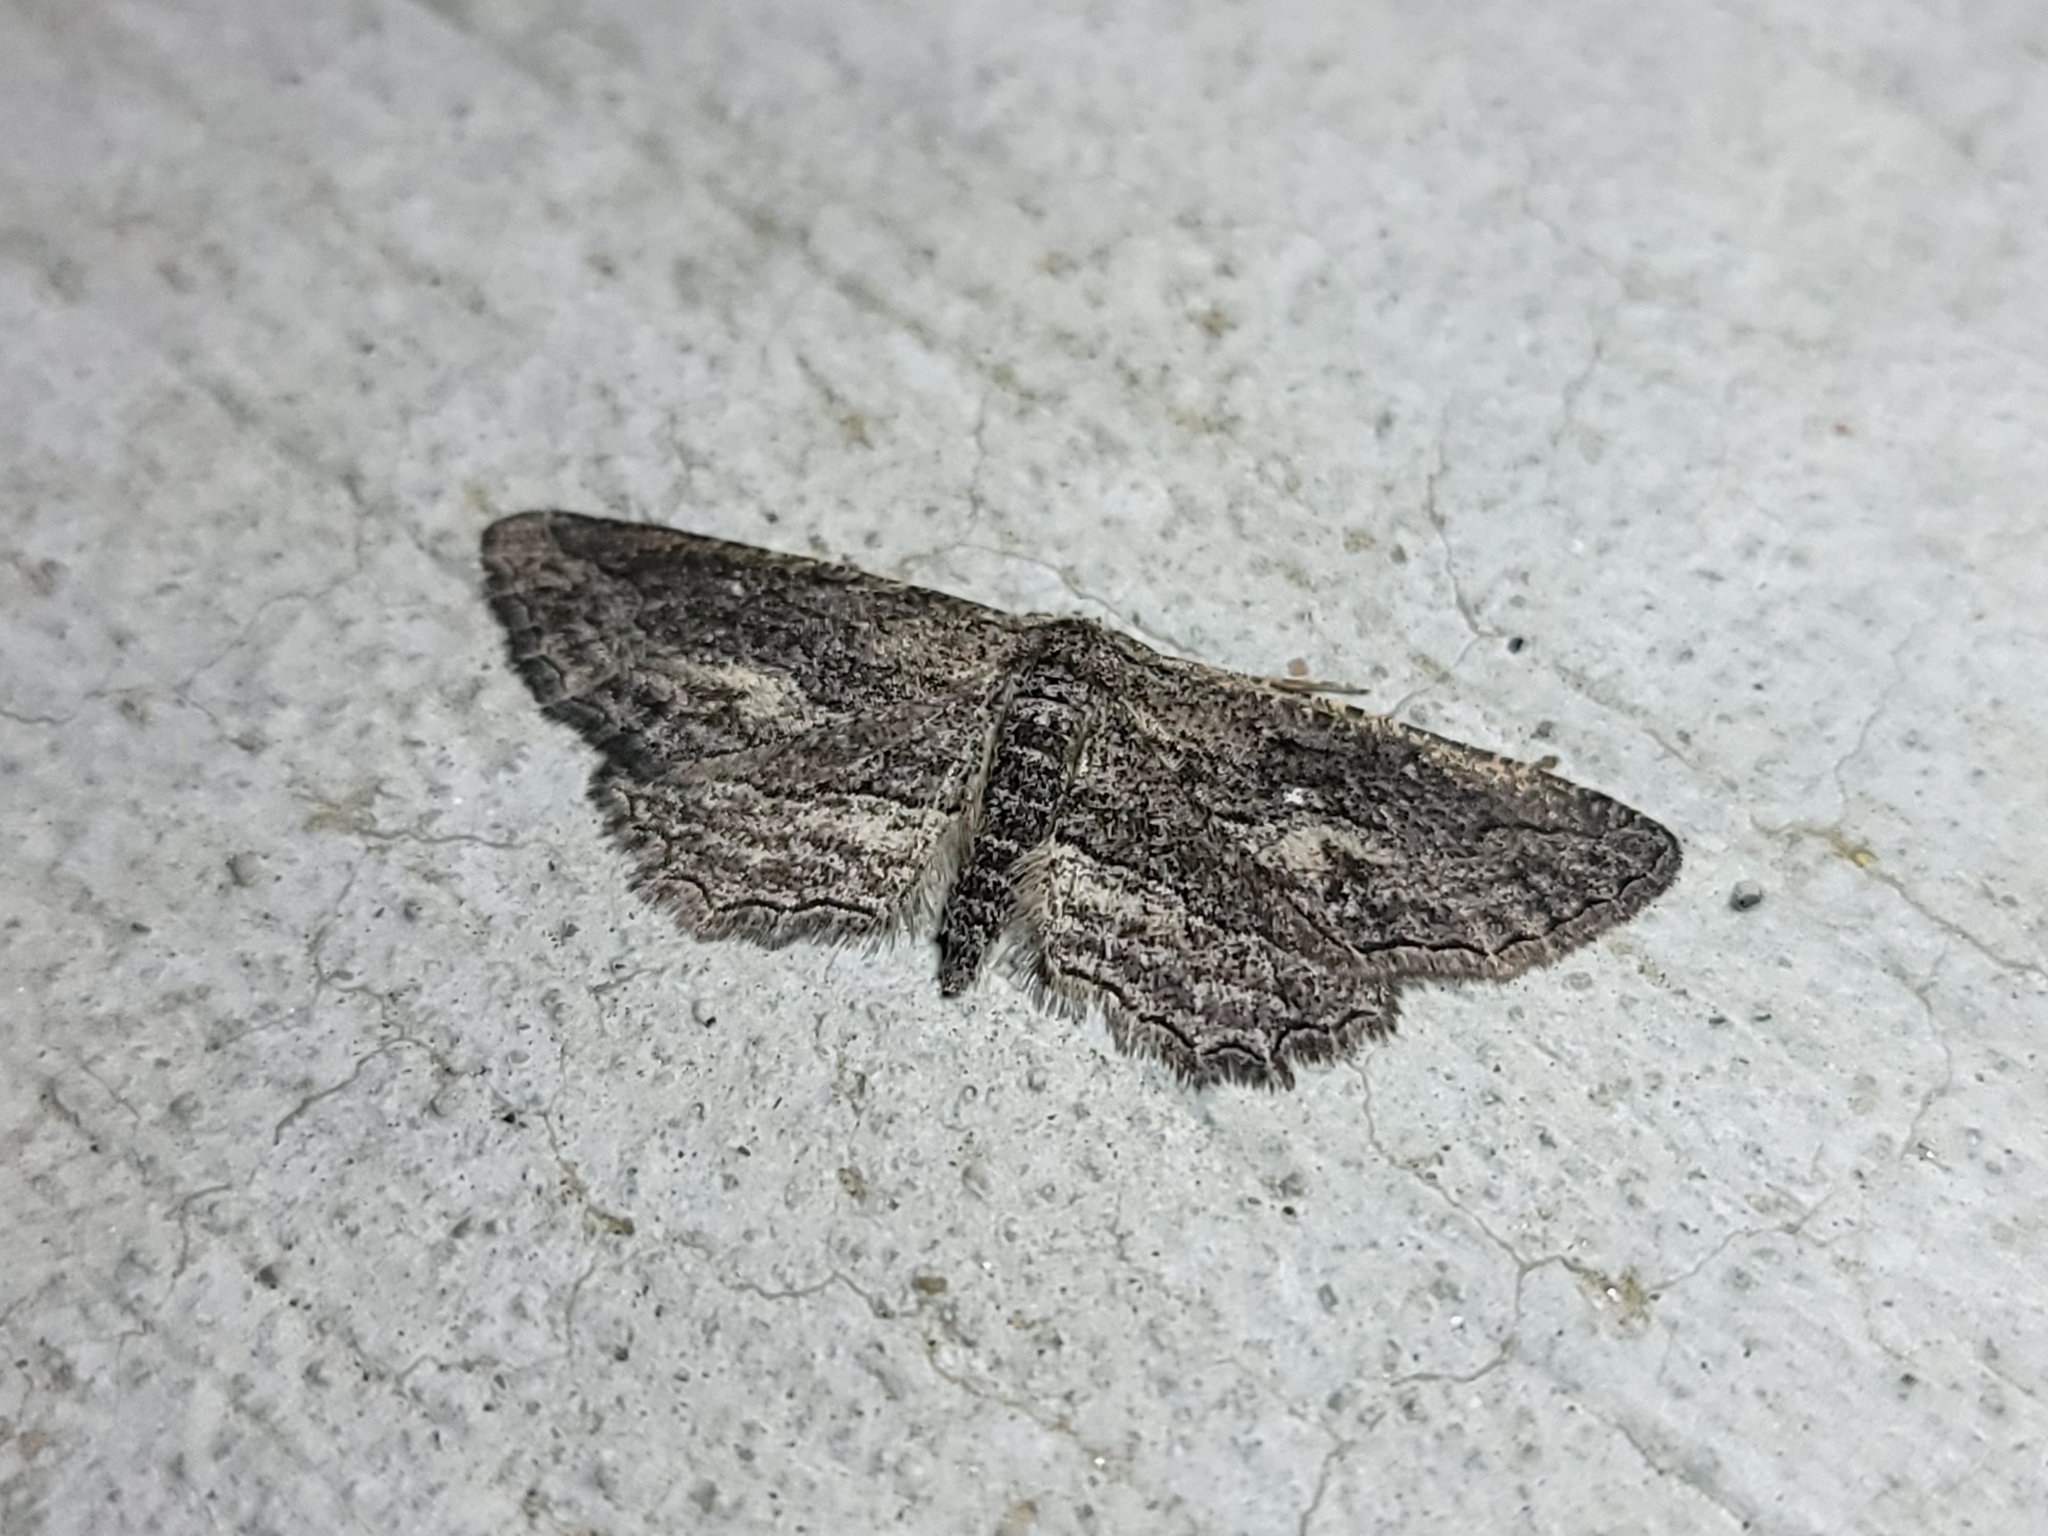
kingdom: Animalia
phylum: Arthropoda
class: Insecta
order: Lepidoptera
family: Geometridae
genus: Aethaloida
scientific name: Aethaloida packardaria
